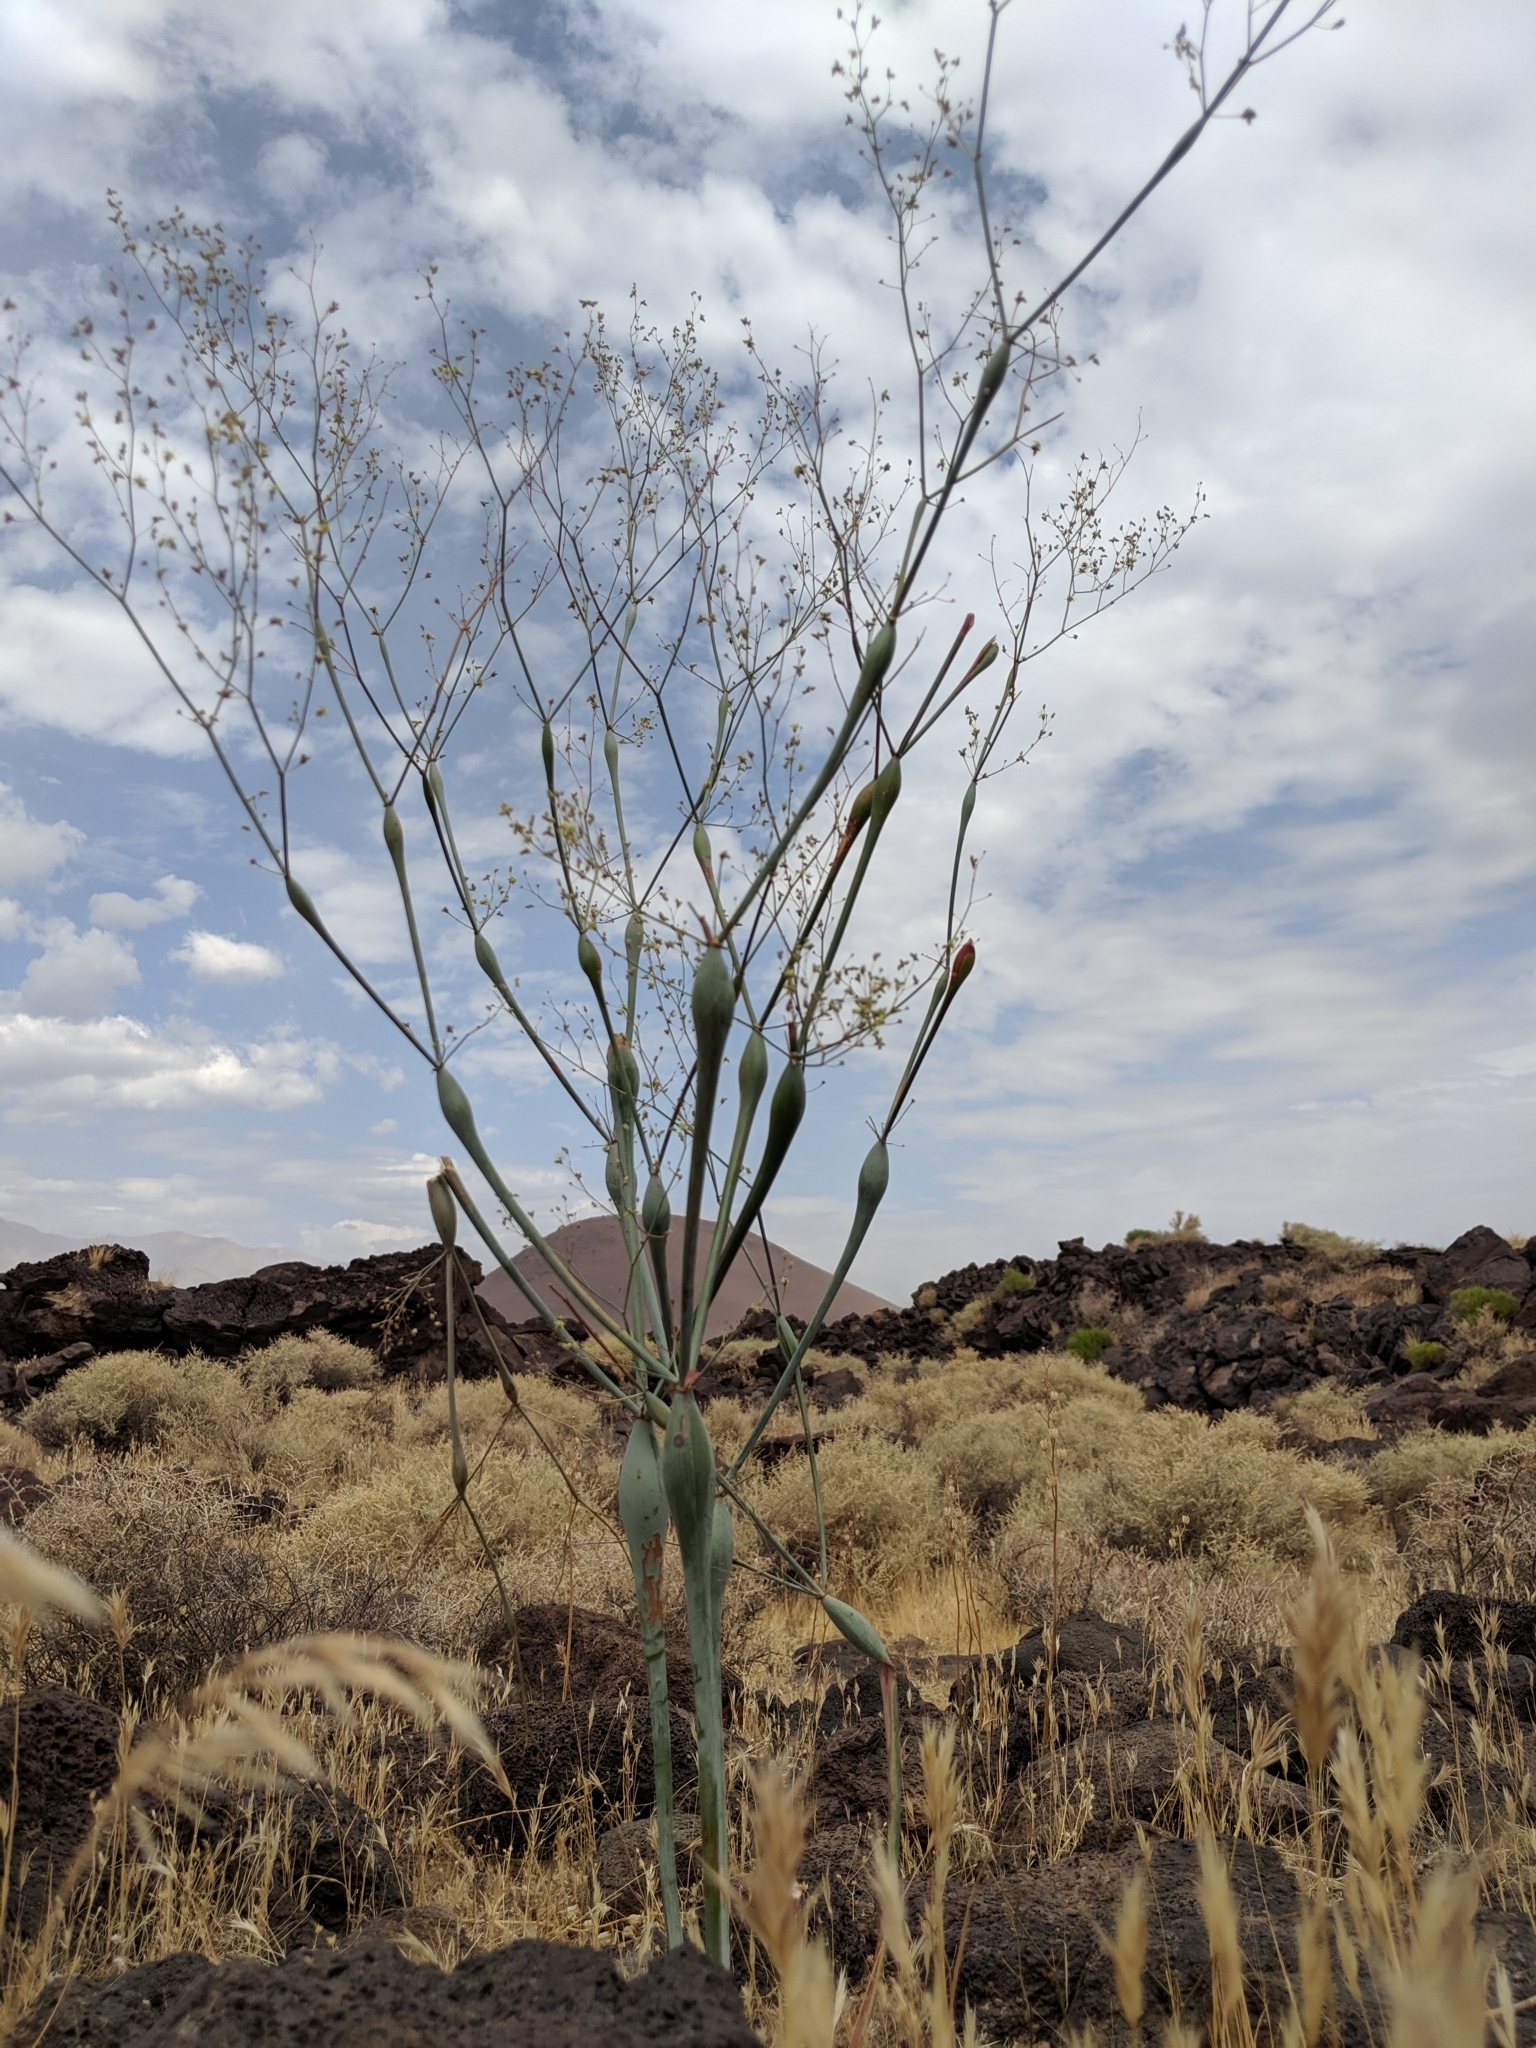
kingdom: Plantae
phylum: Tracheophyta
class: Magnoliopsida
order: Caryophyllales
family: Polygonaceae
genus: Eriogonum
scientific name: Eriogonum inflatum
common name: Desert trumpet
